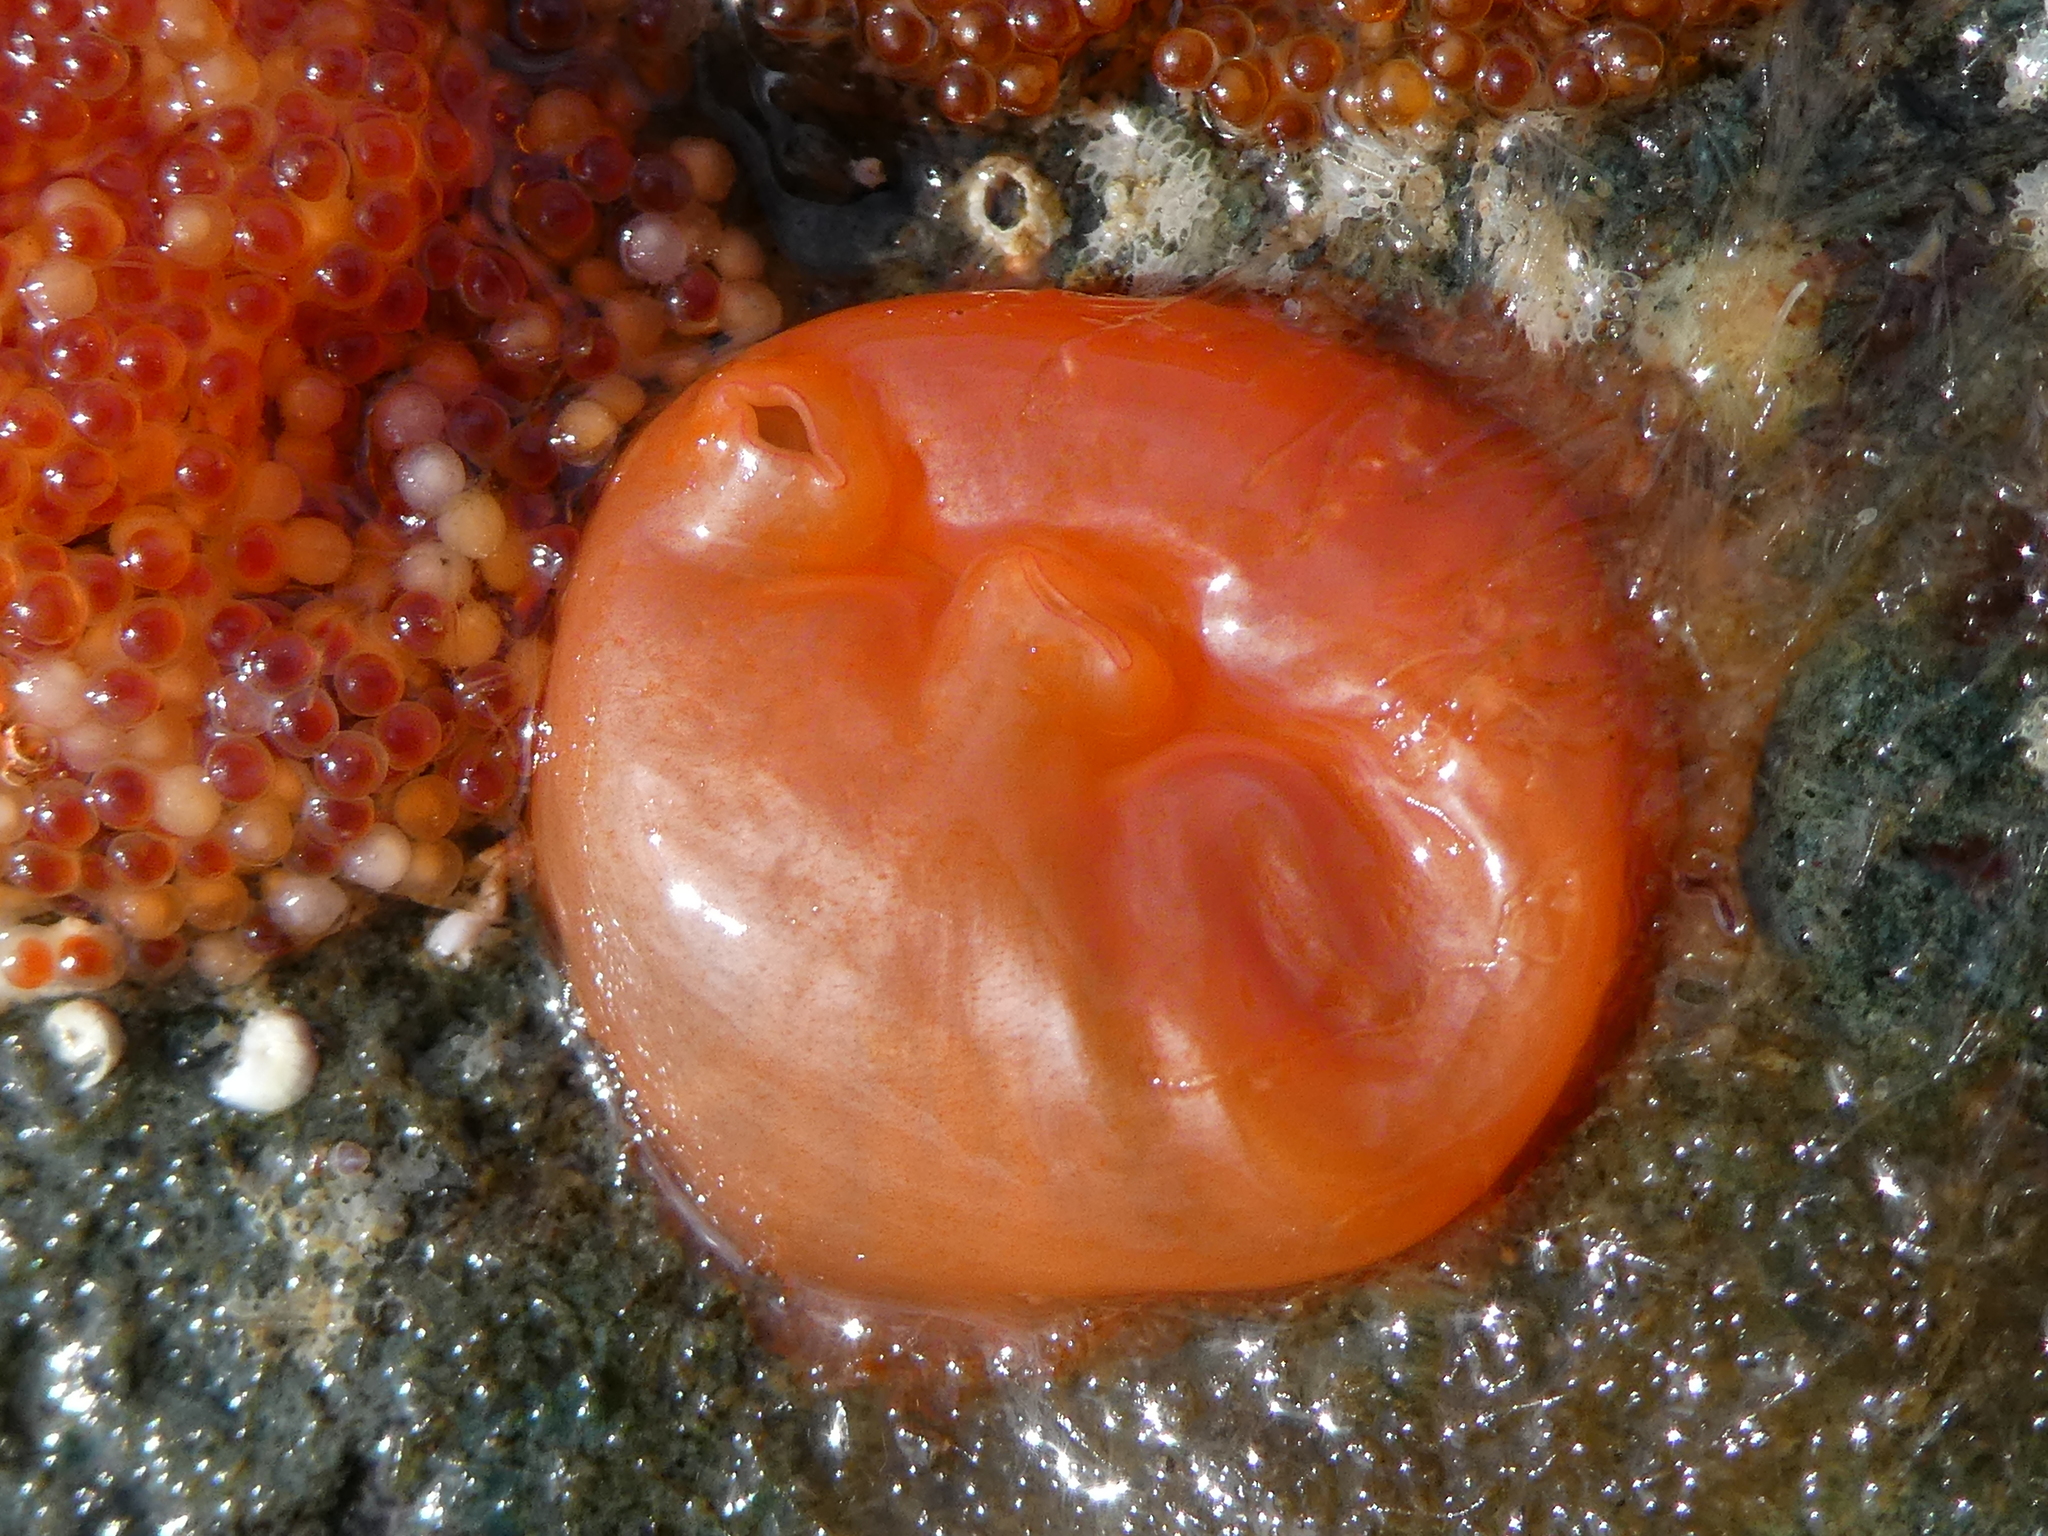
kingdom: Animalia
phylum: Chordata
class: Ascidiacea
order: Stolidobranchia
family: Styelidae
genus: Cnemidocarpa
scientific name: Cnemidocarpa finmarkiensis
